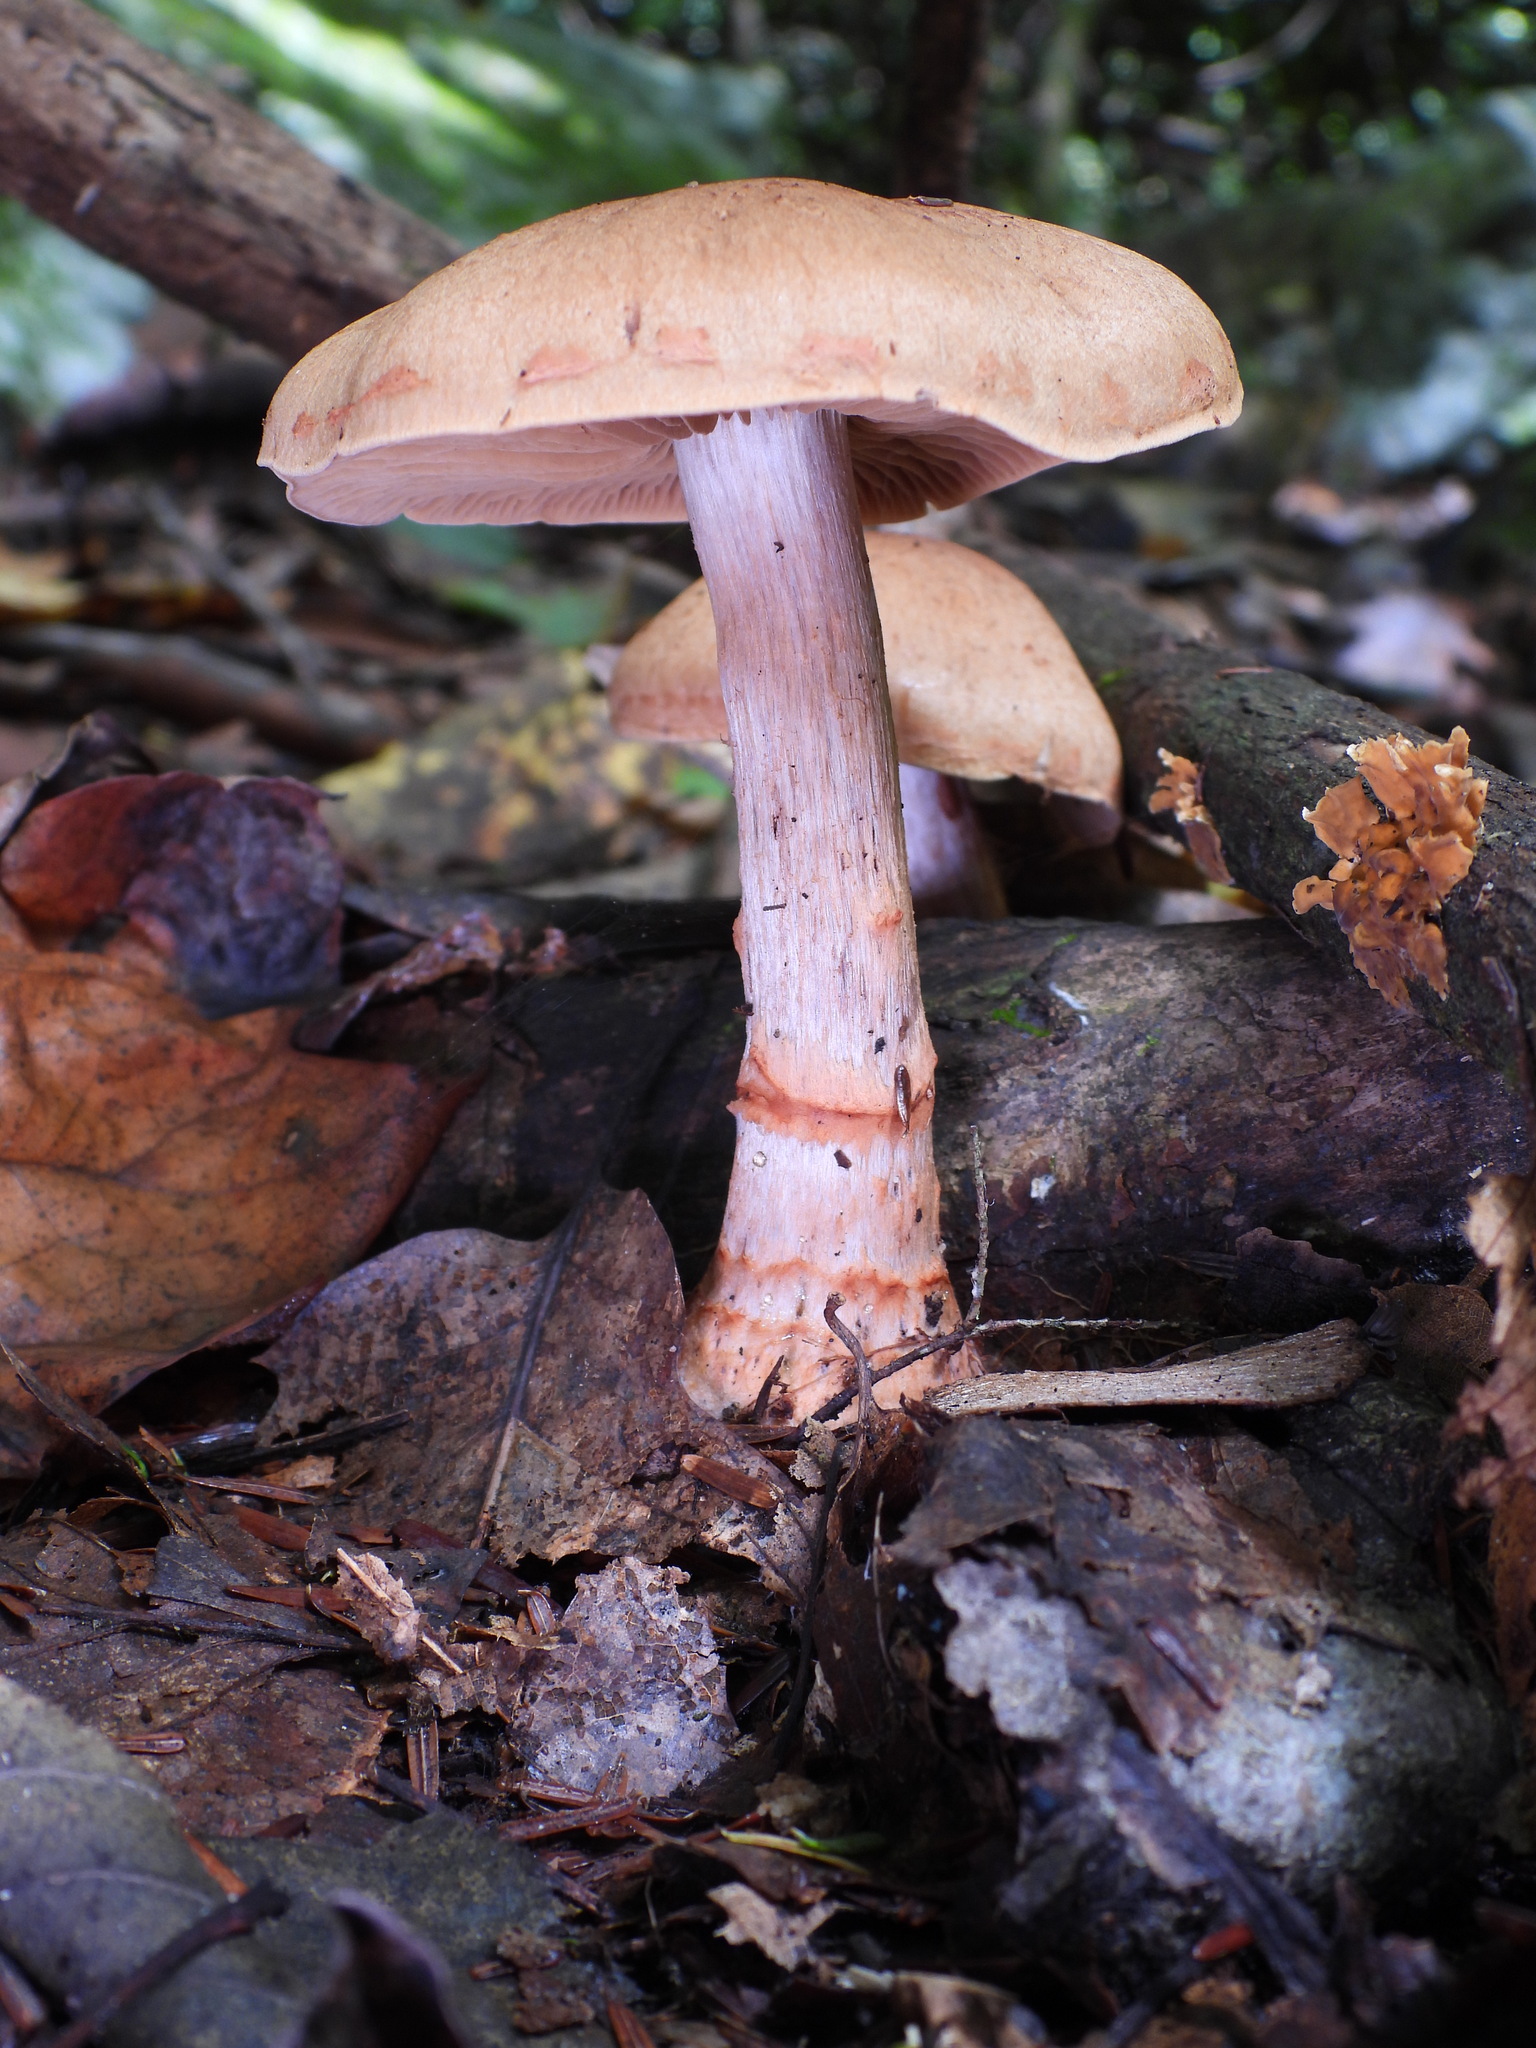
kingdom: Fungi
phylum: Basidiomycota
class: Agaricomycetes
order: Agaricales
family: Cortinariaceae
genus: Cortinarius
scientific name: Cortinarius armillatus
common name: Red banded webcap
